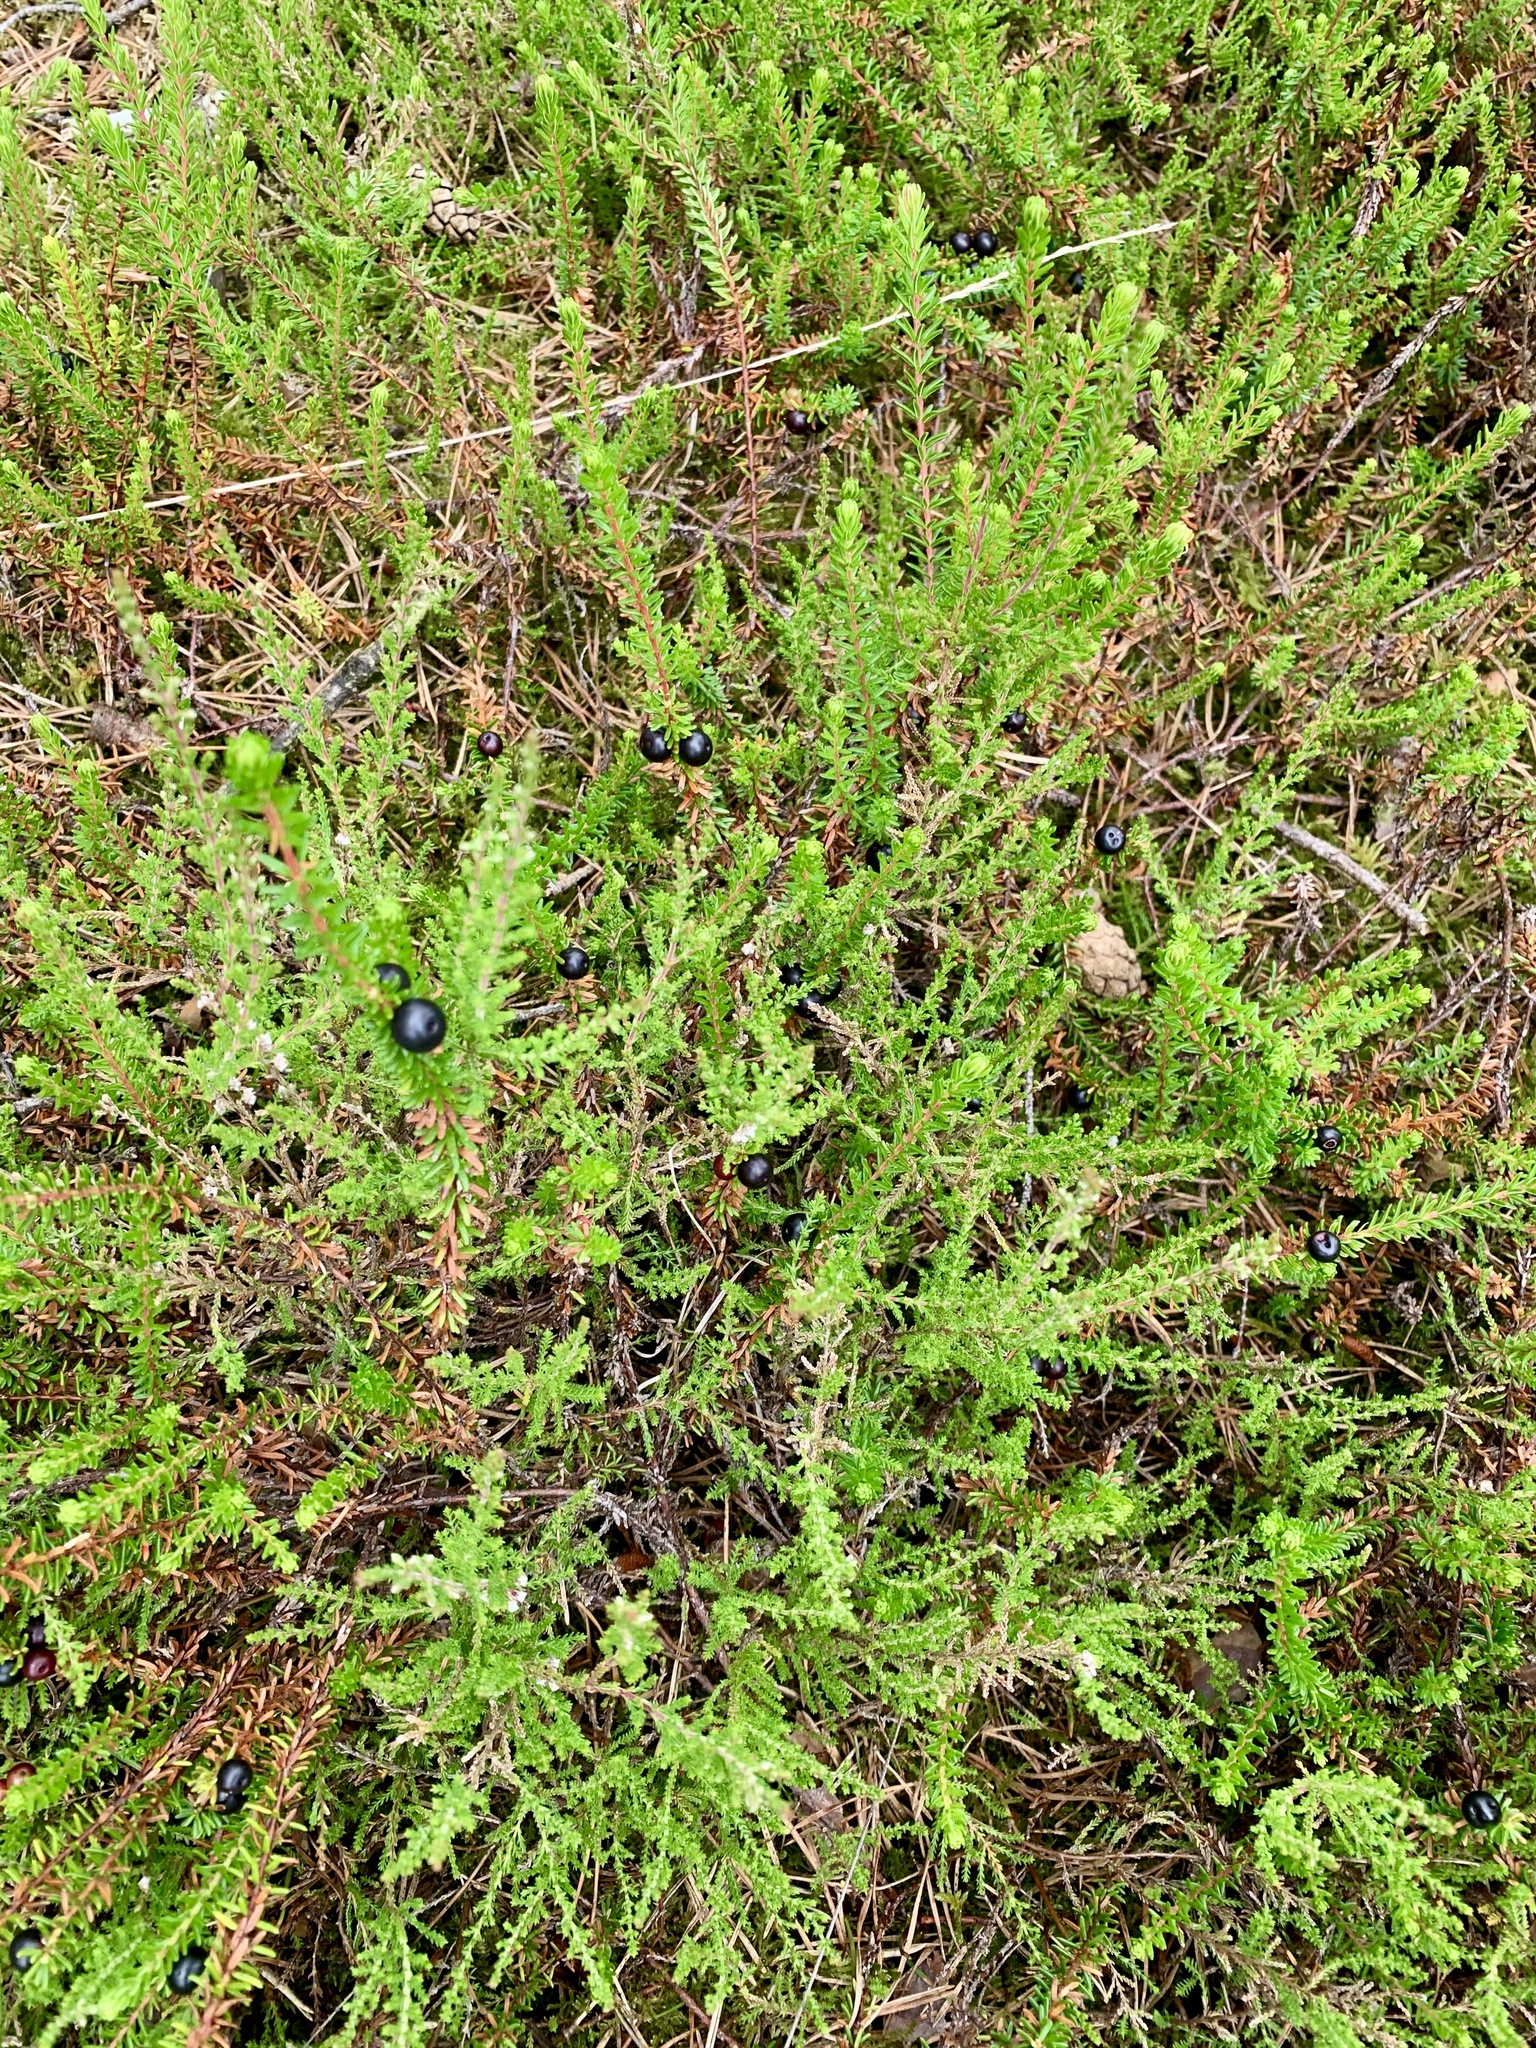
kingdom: Plantae
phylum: Tracheophyta
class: Magnoliopsida
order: Ericales
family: Ericaceae
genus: Empetrum
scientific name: Empetrum nigrum
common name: Black crowberry
